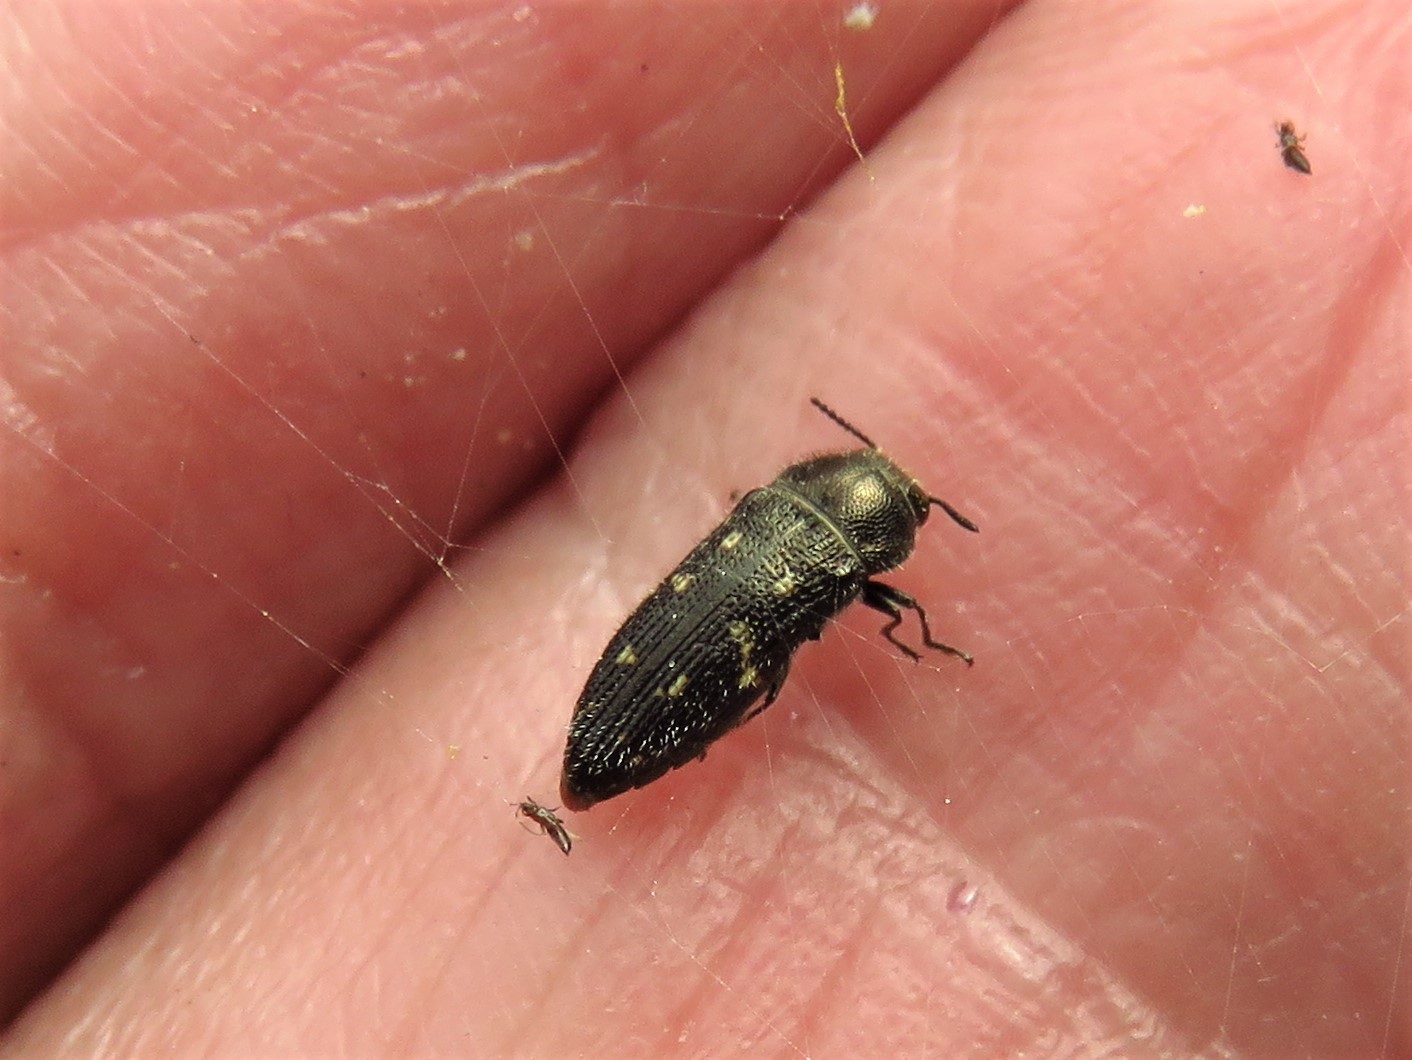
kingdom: Animalia
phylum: Arthropoda
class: Insecta
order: Coleoptera
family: Buprestidae
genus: Acmaeodera
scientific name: Acmaeodera tubulus
